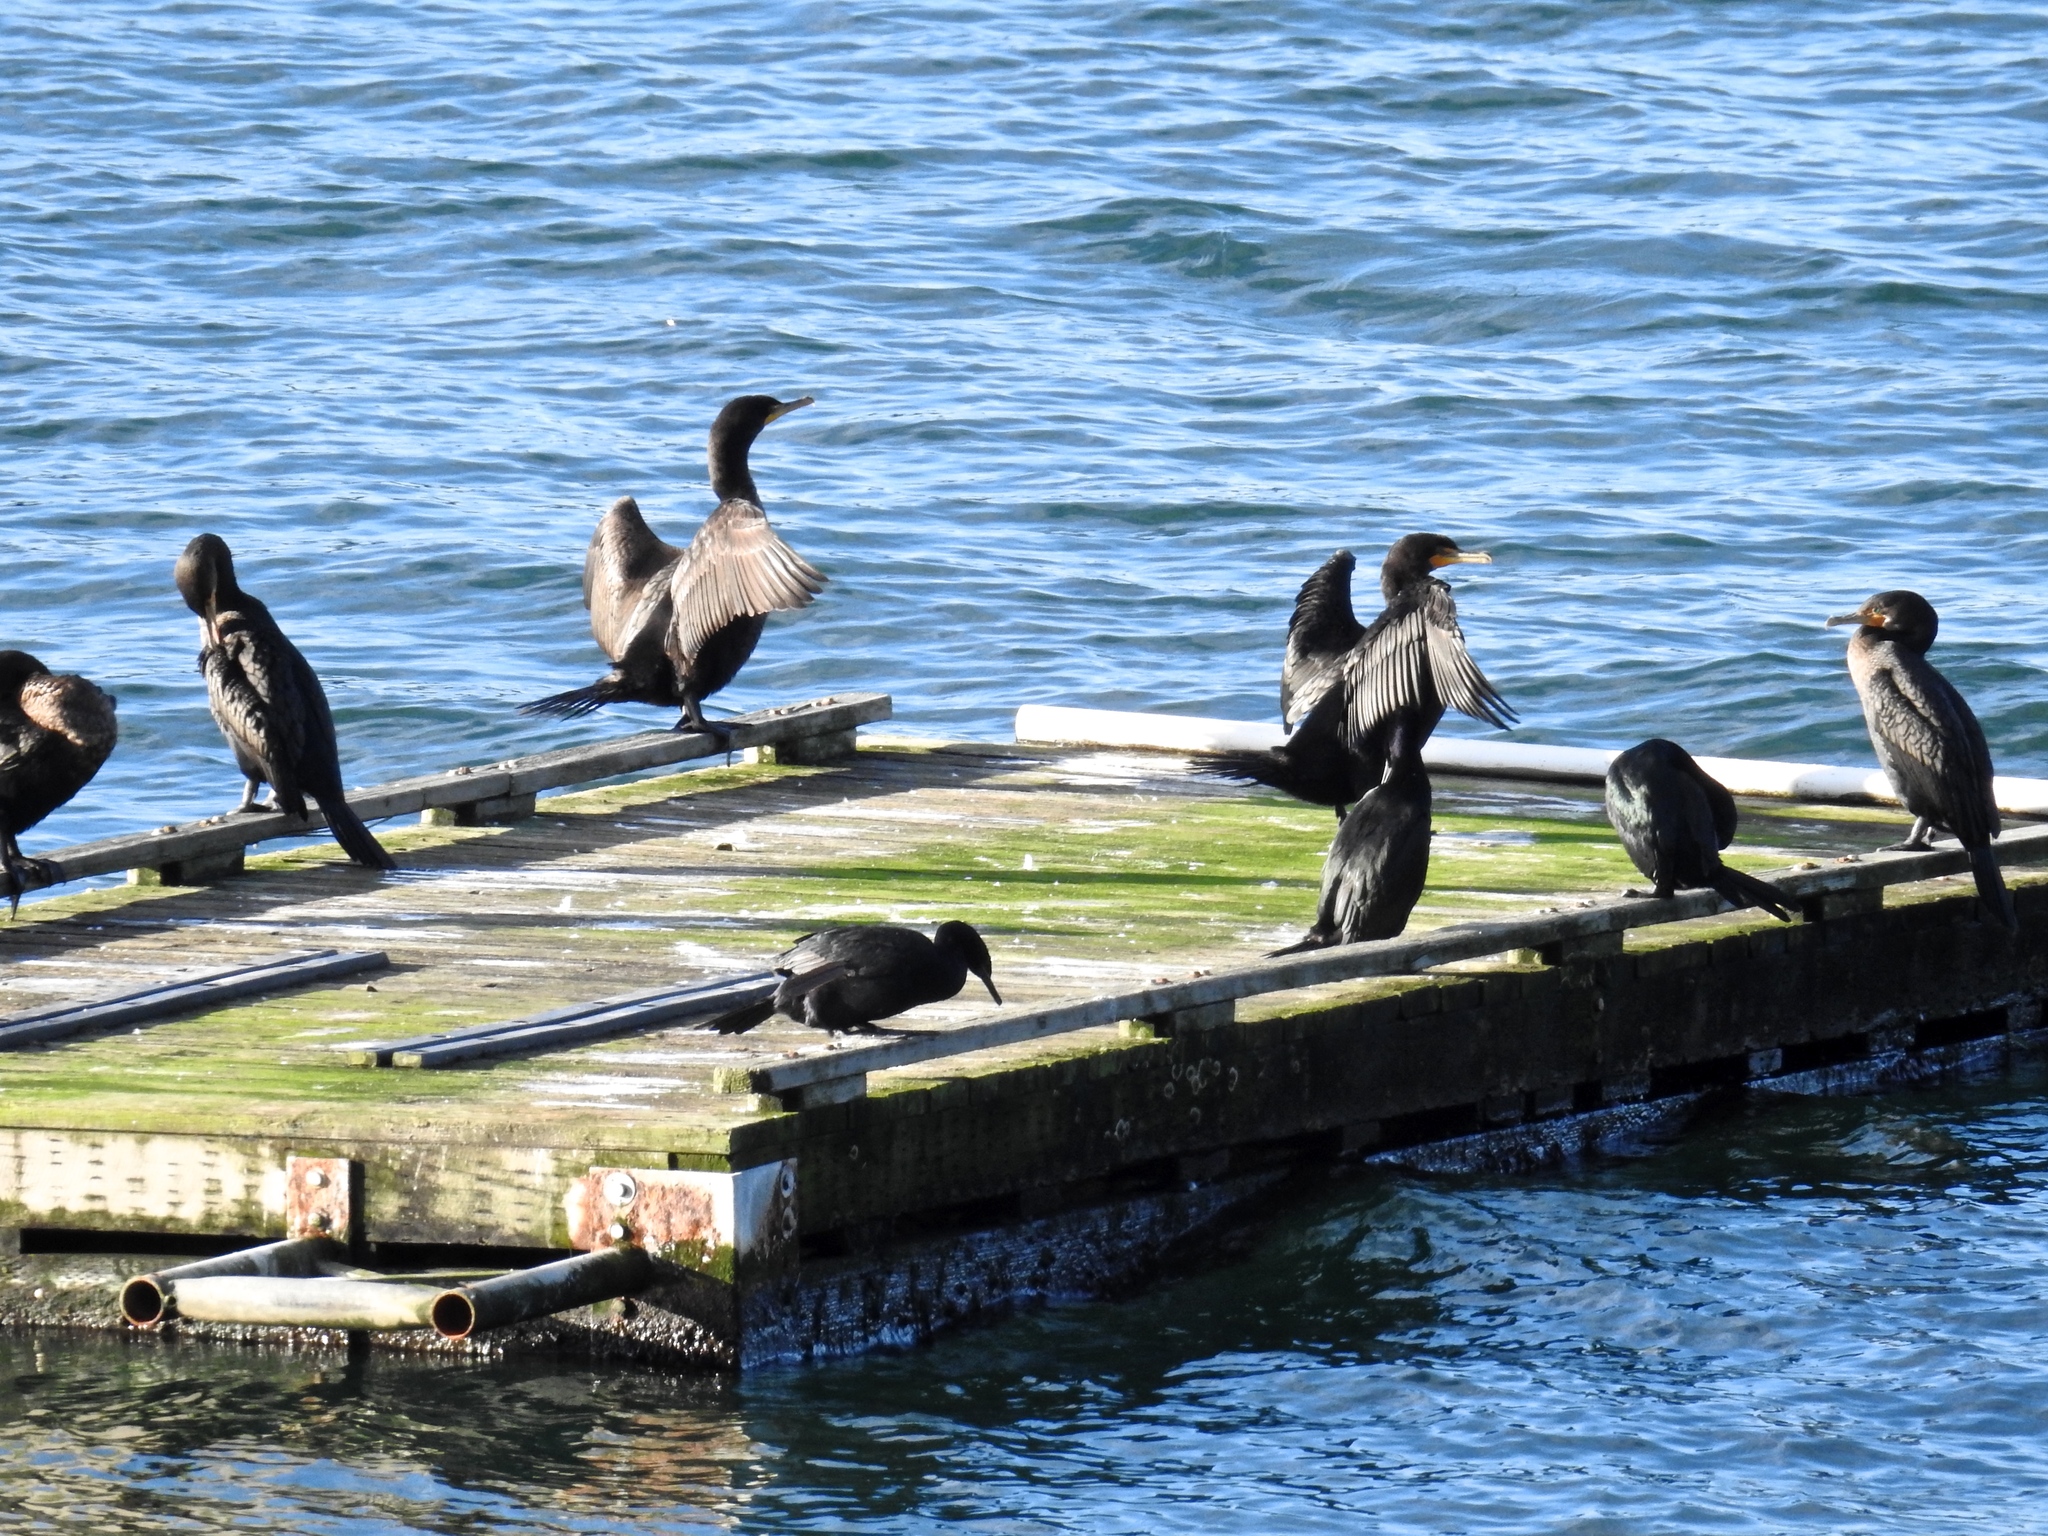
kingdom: Animalia
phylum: Chordata
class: Aves
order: Suliformes
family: Phalacrocoracidae
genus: Phalacrocorax
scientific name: Phalacrocorax auritus
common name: Double-crested cormorant
